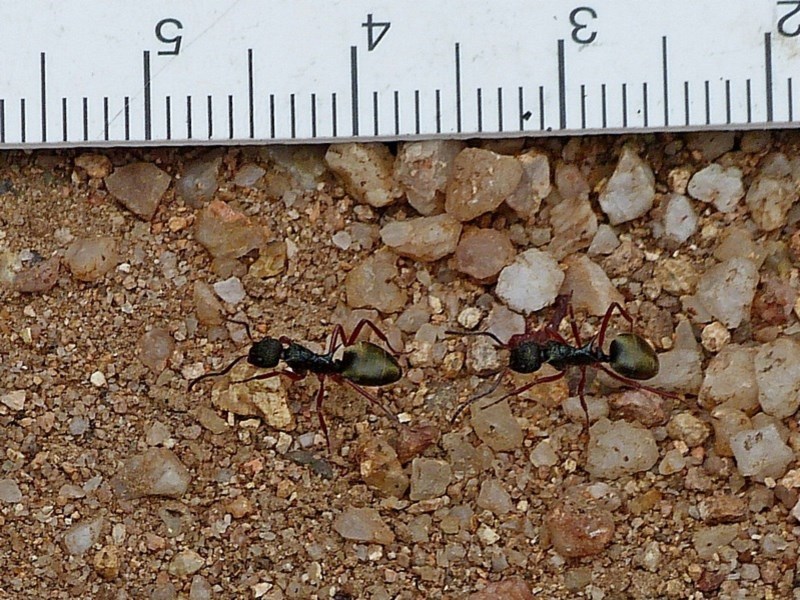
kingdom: Animalia
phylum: Arthropoda
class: Insecta
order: Hymenoptera
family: Formicidae
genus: Dolichoderus
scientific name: Dolichoderus doriae
